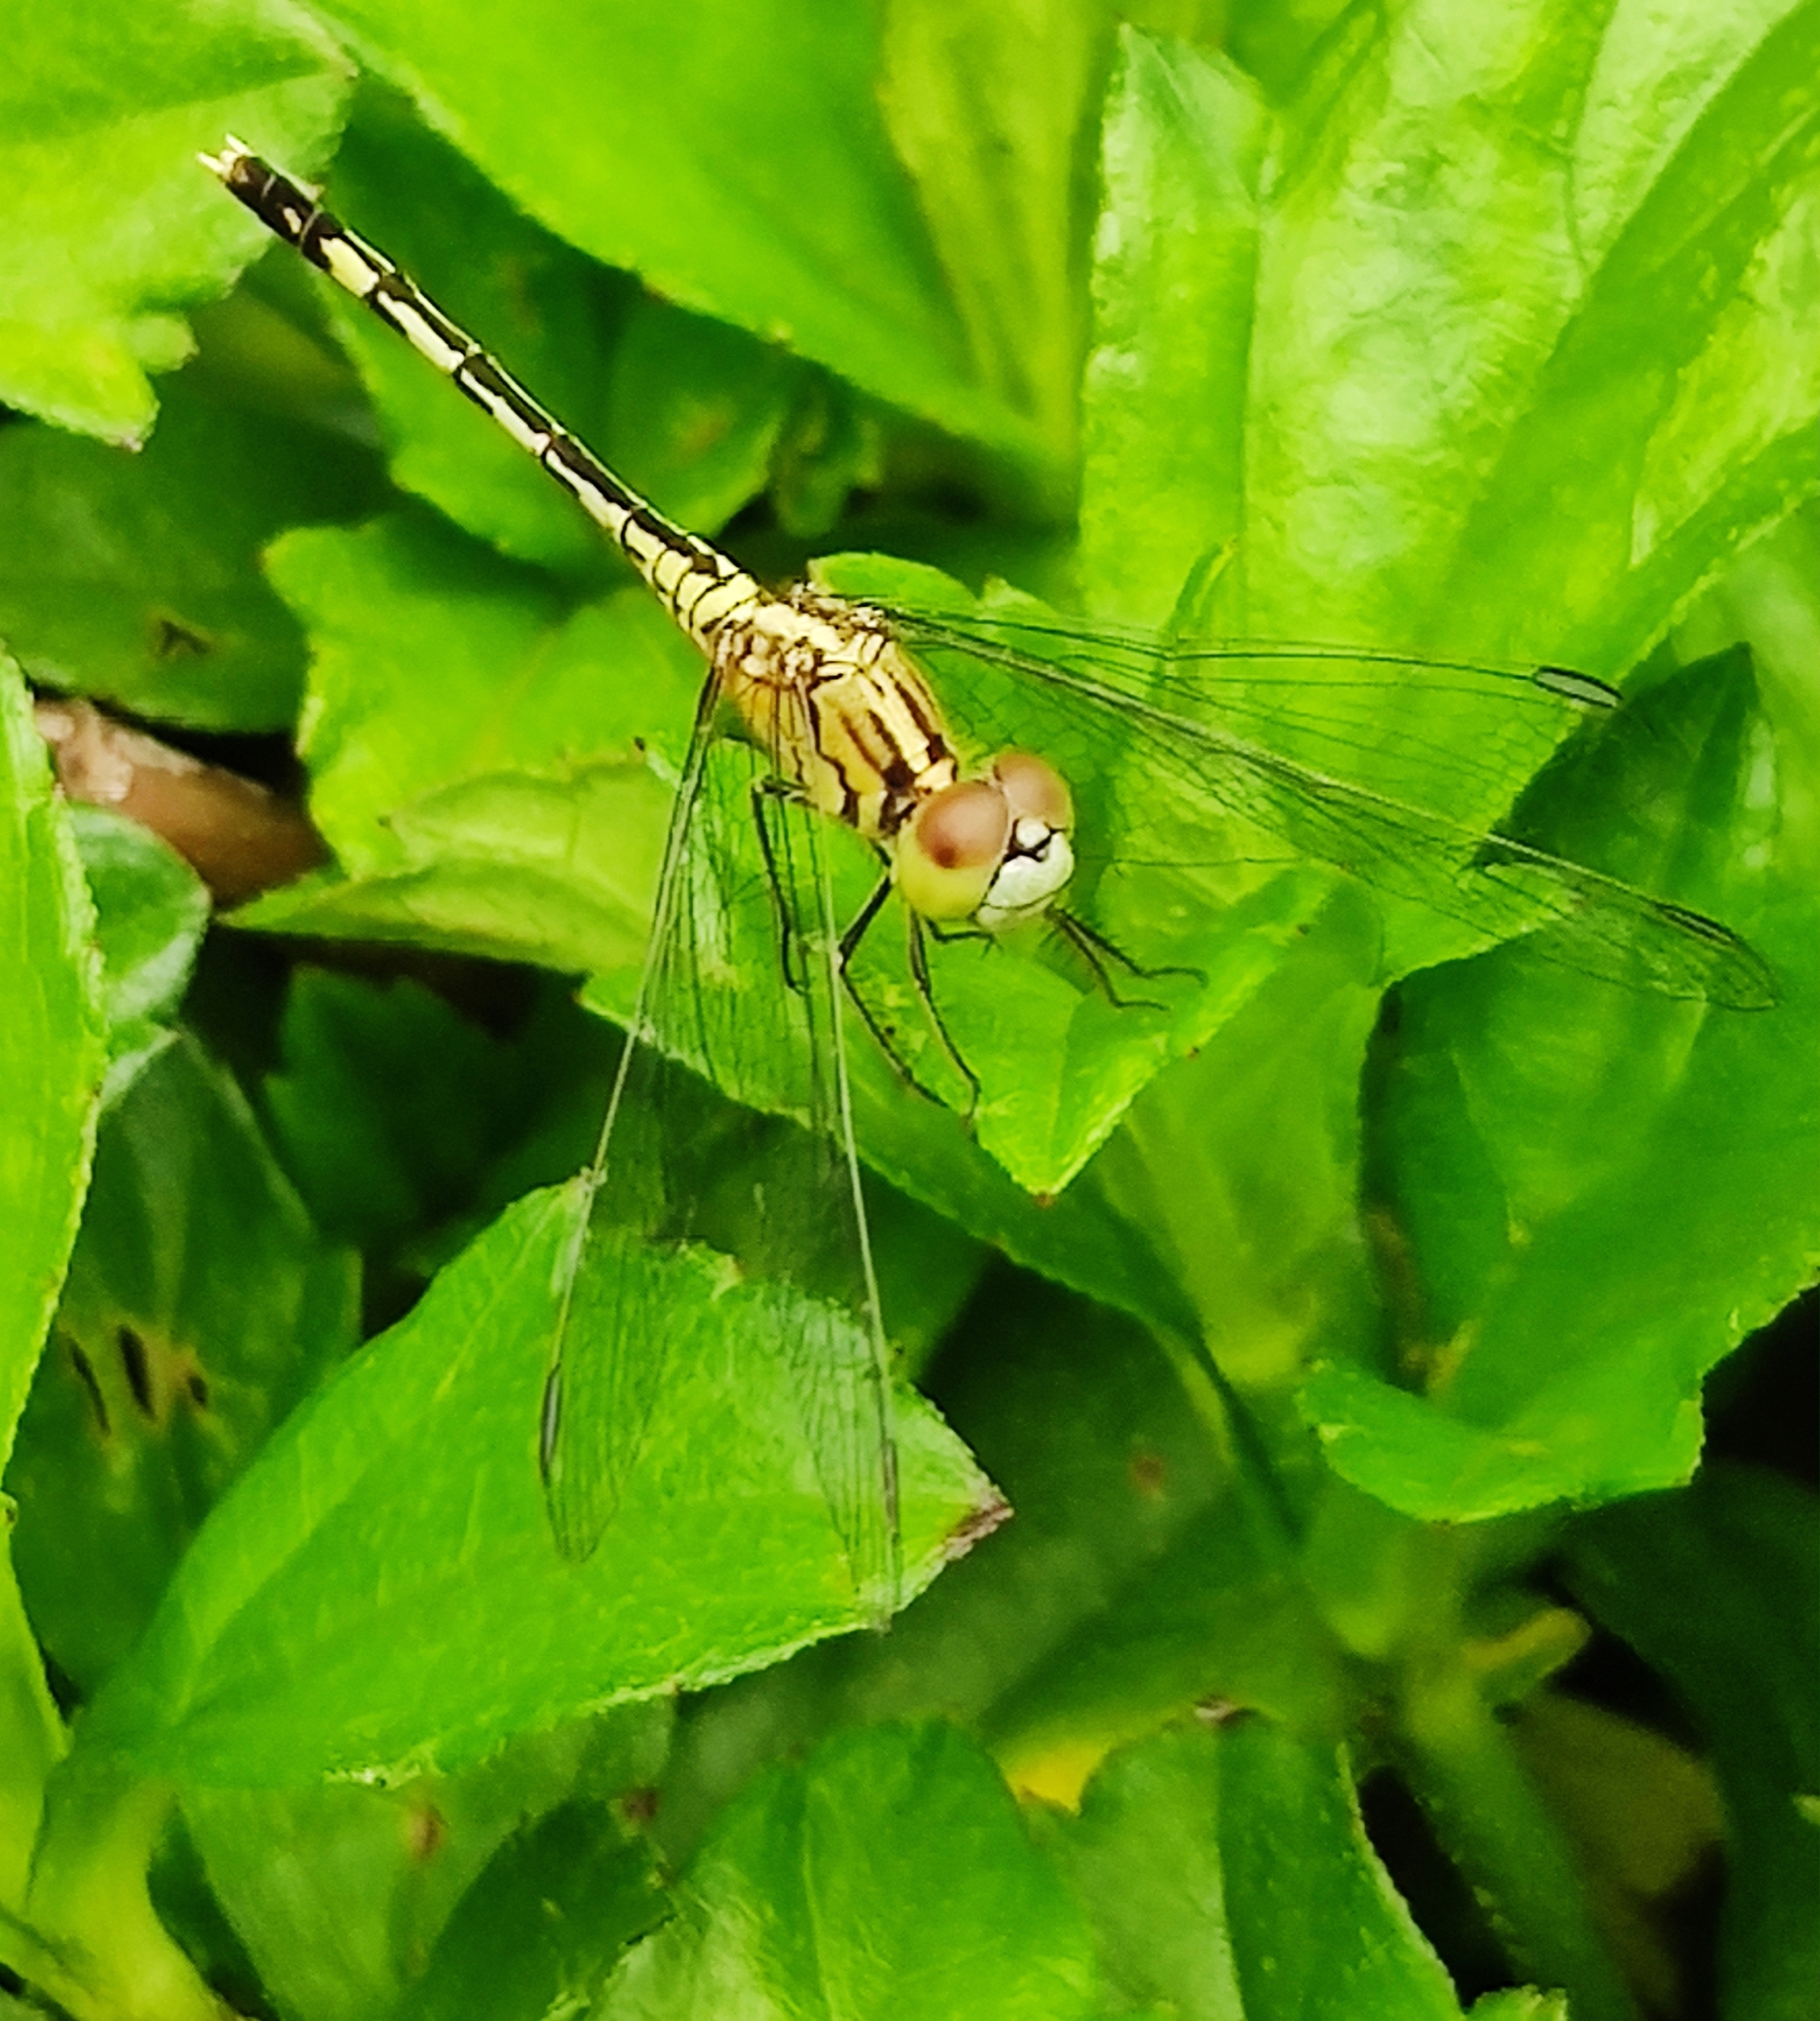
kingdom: Animalia
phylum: Arthropoda
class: Insecta
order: Odonata
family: Libellulidae
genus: Diplacodes
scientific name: Diplacodes trivialis
